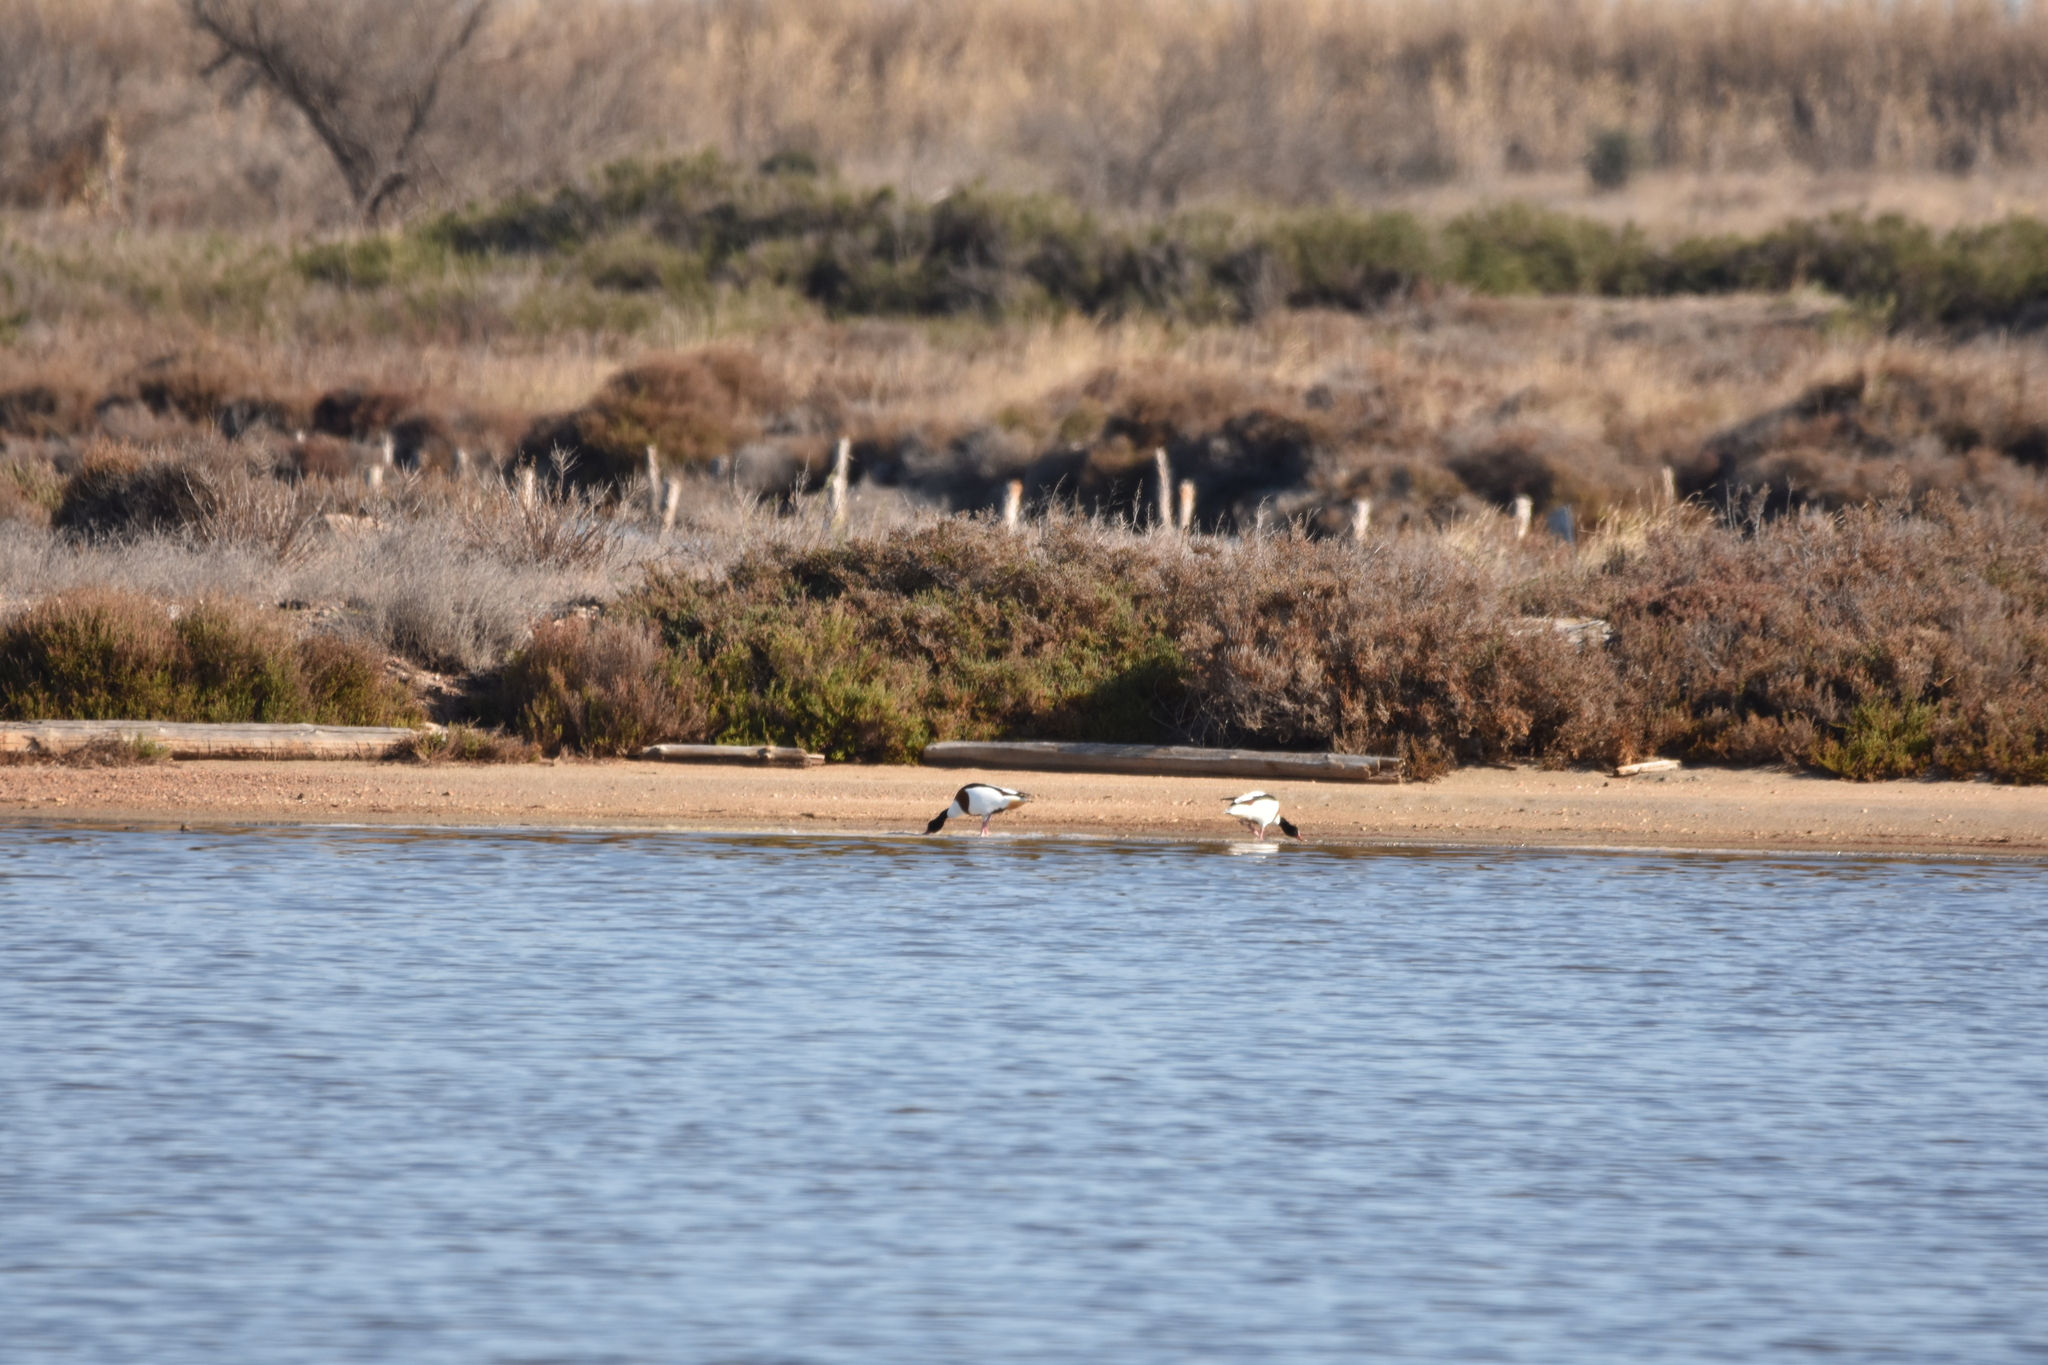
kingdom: Animalia
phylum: Chordata
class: Aves
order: Anseriformes
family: Anatidae
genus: Tadorna
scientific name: Tadorna tadorna
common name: Common shelduck
